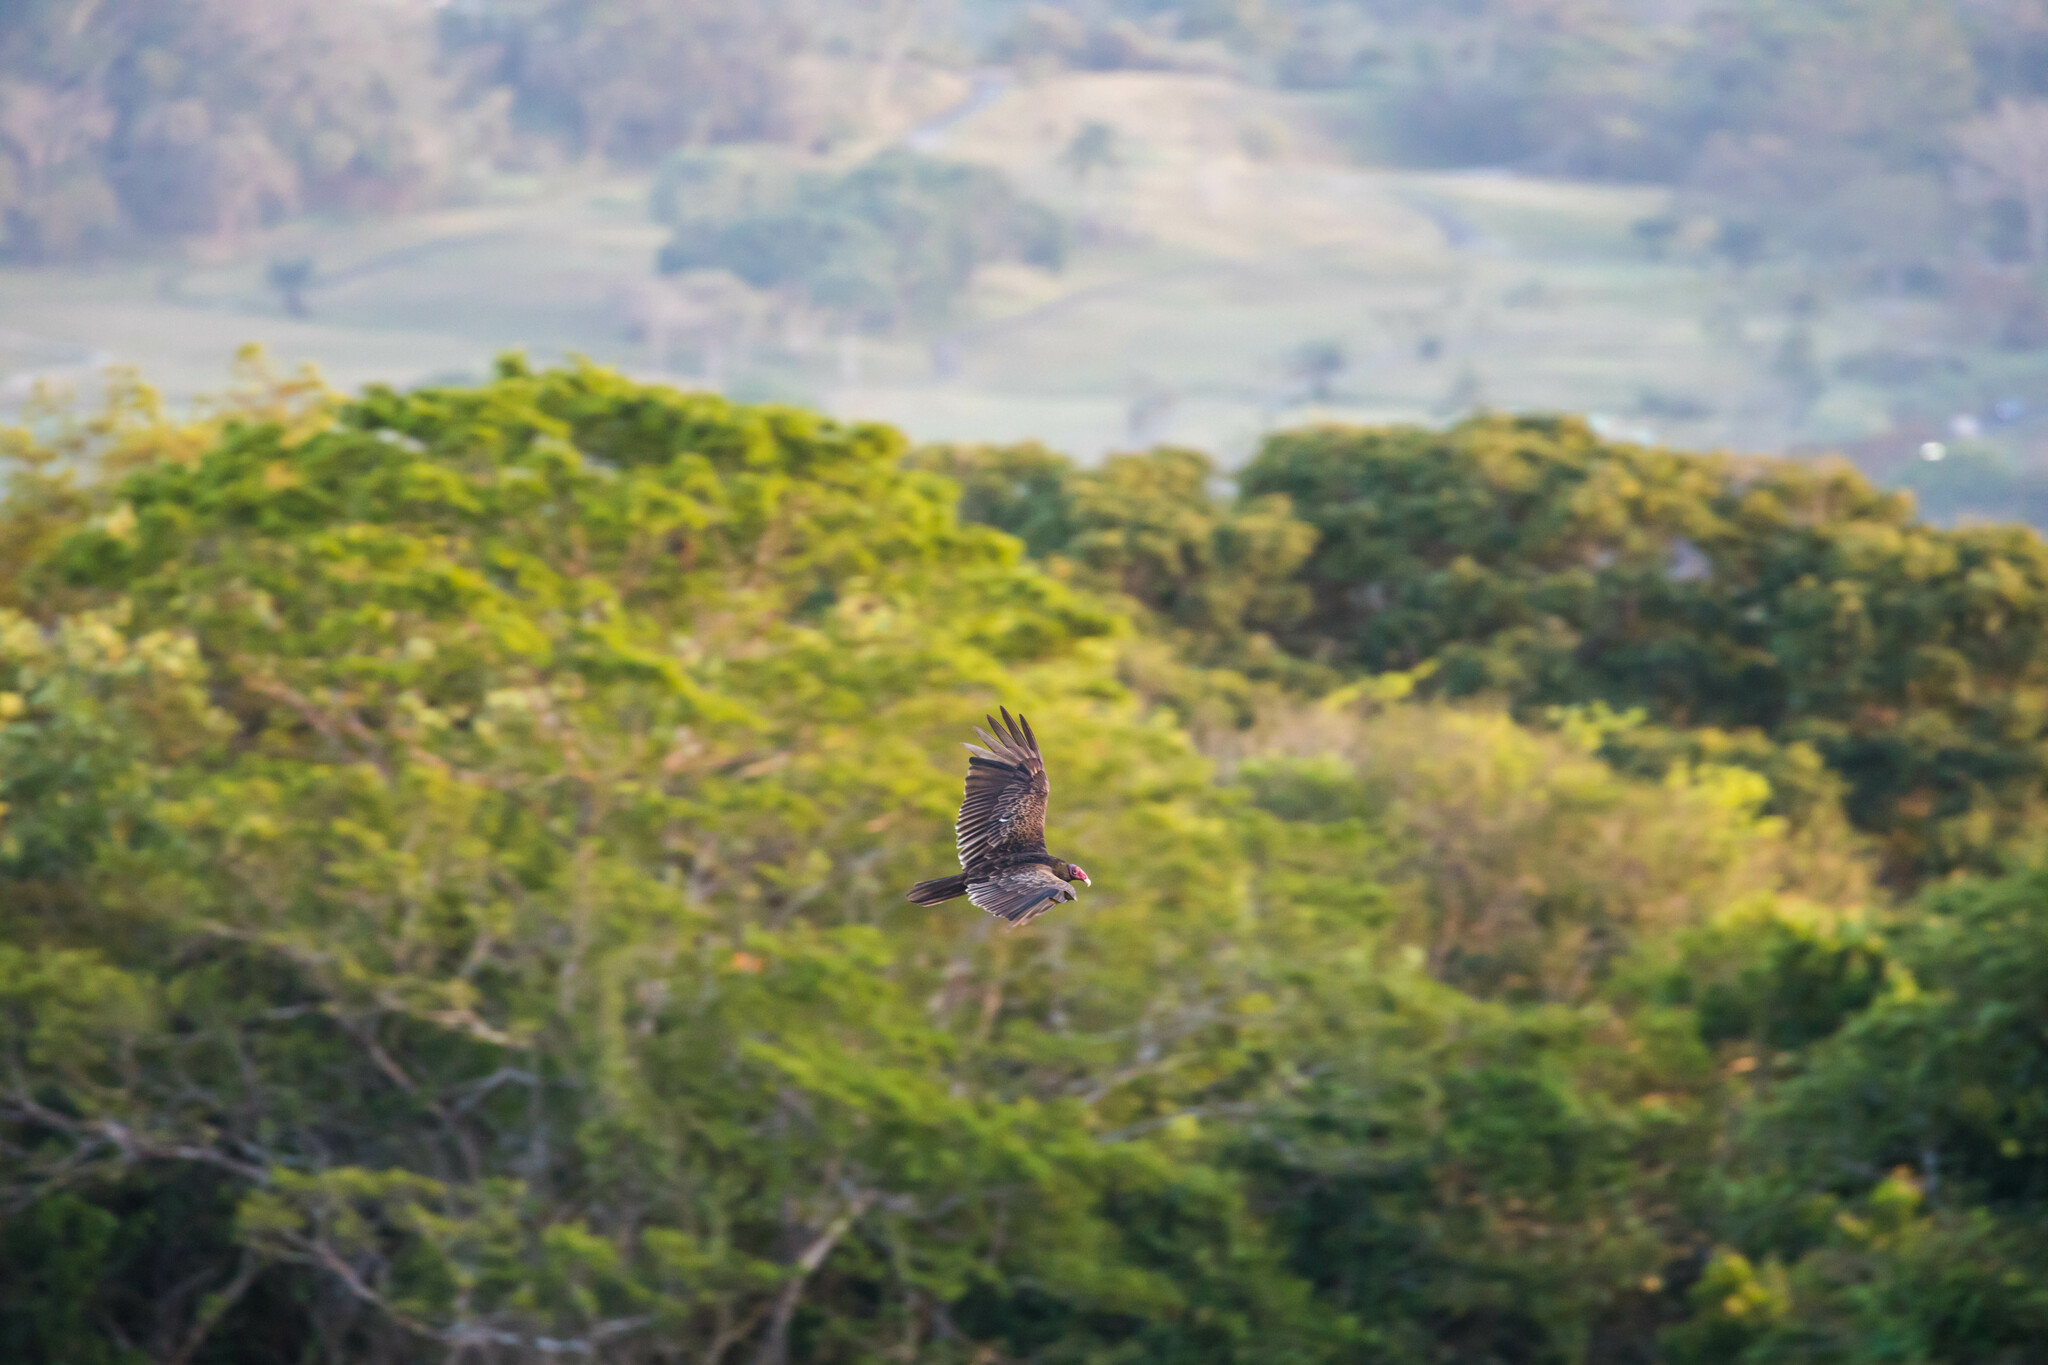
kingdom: Animalia
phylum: Chordata
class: Aves
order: Accipitriformes
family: Cathartidae
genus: Cathartes
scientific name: Cathartes aura
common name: Turkey vulture
